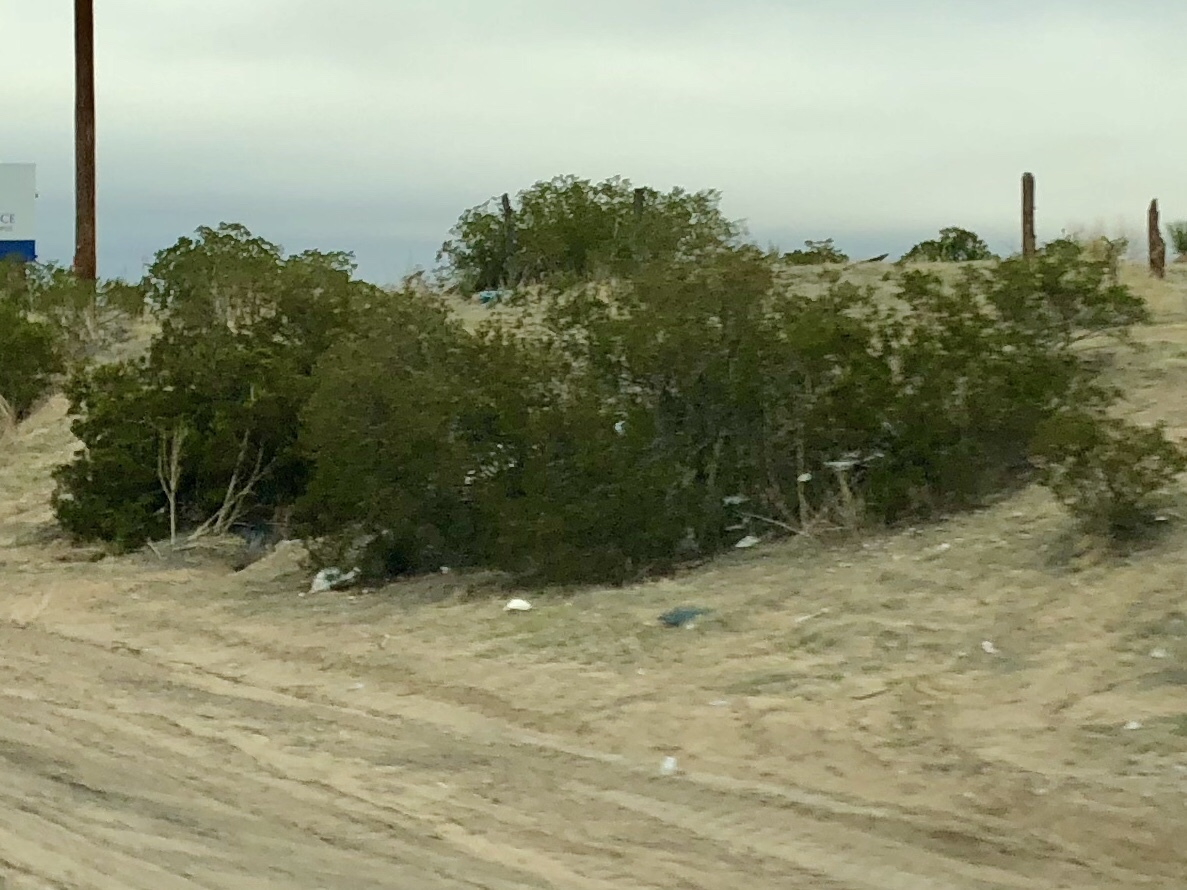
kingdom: Plantae
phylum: Tracheophyta
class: Magnoliopsida
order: Zygophyllales
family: Zygophyllaceae
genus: Larrea
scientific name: Larrea tridentata
